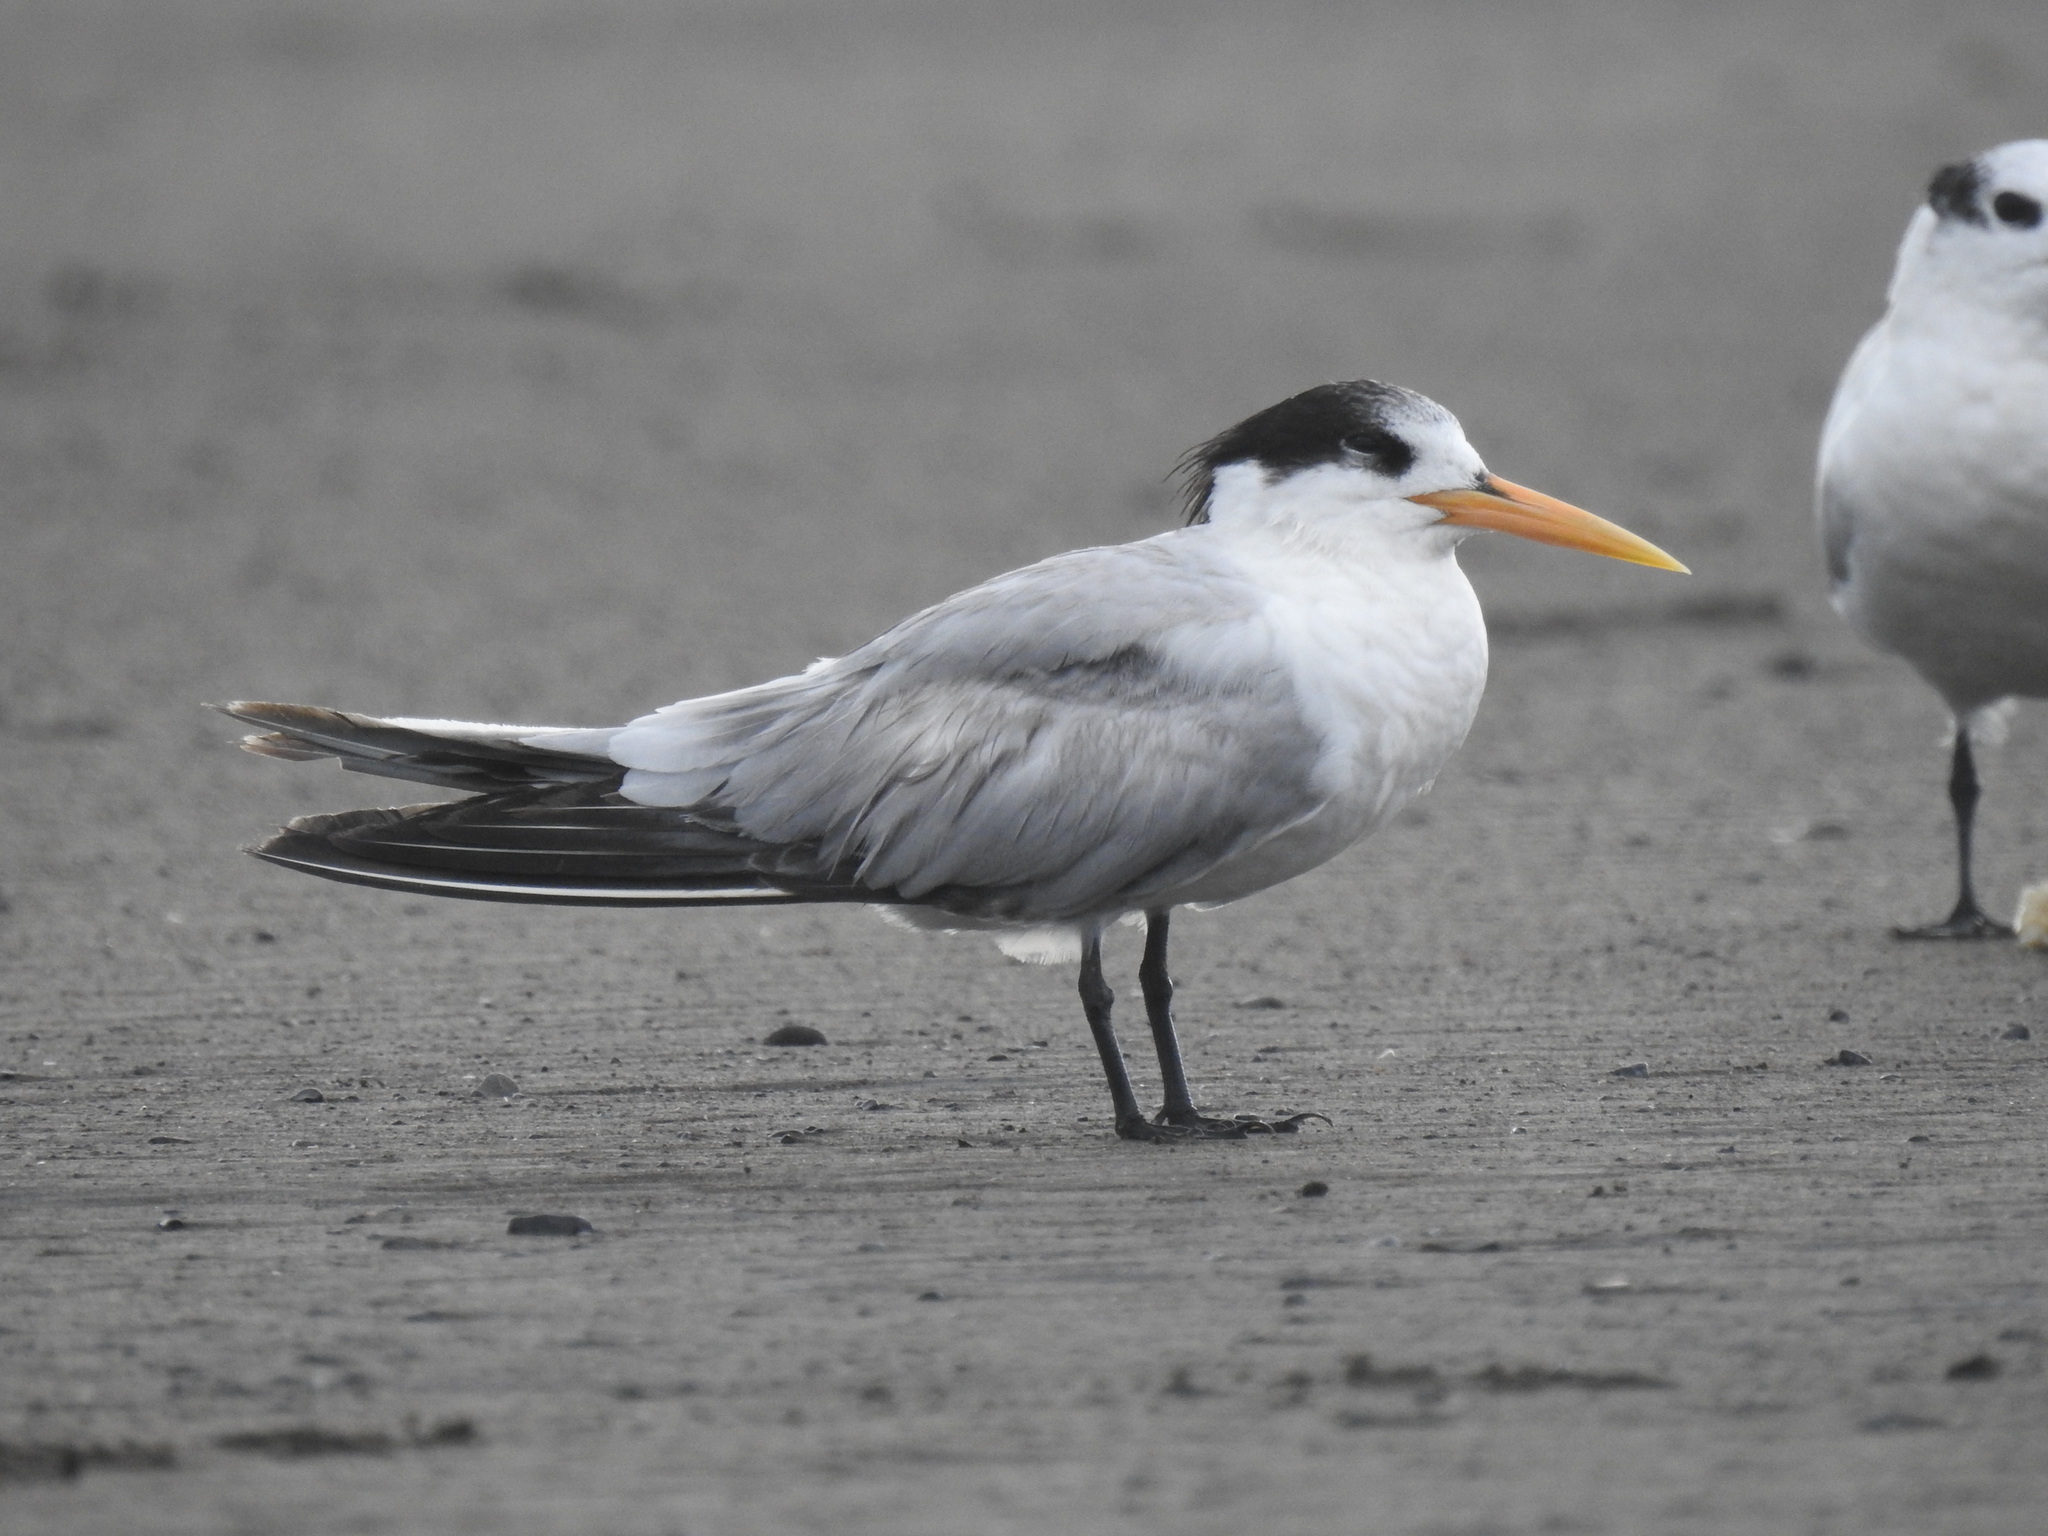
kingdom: Animalia
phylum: Chordata
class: Aves
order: Charadriiformes
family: Laridae
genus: Thalasseus
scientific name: Thalasseus elegans
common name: Elegant tern
